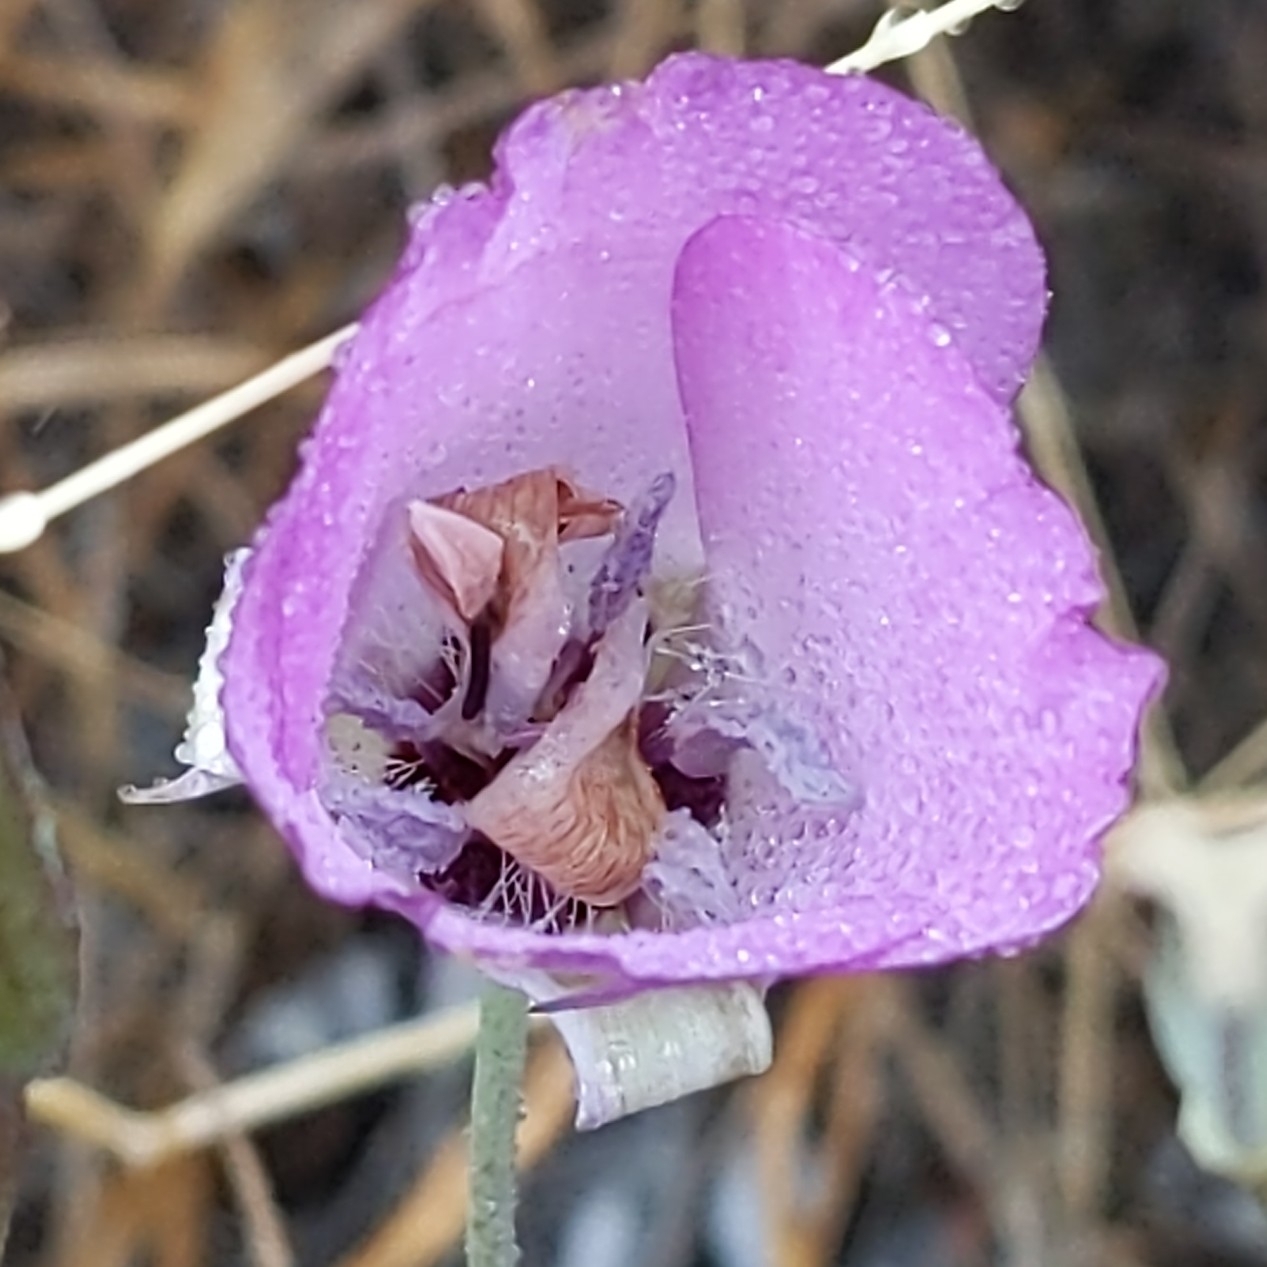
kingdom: Plantae
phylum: Tracheophyta
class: Liliopsida
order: Liliales
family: Liliaceae
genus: Calochortus
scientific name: Calochortus splendens
